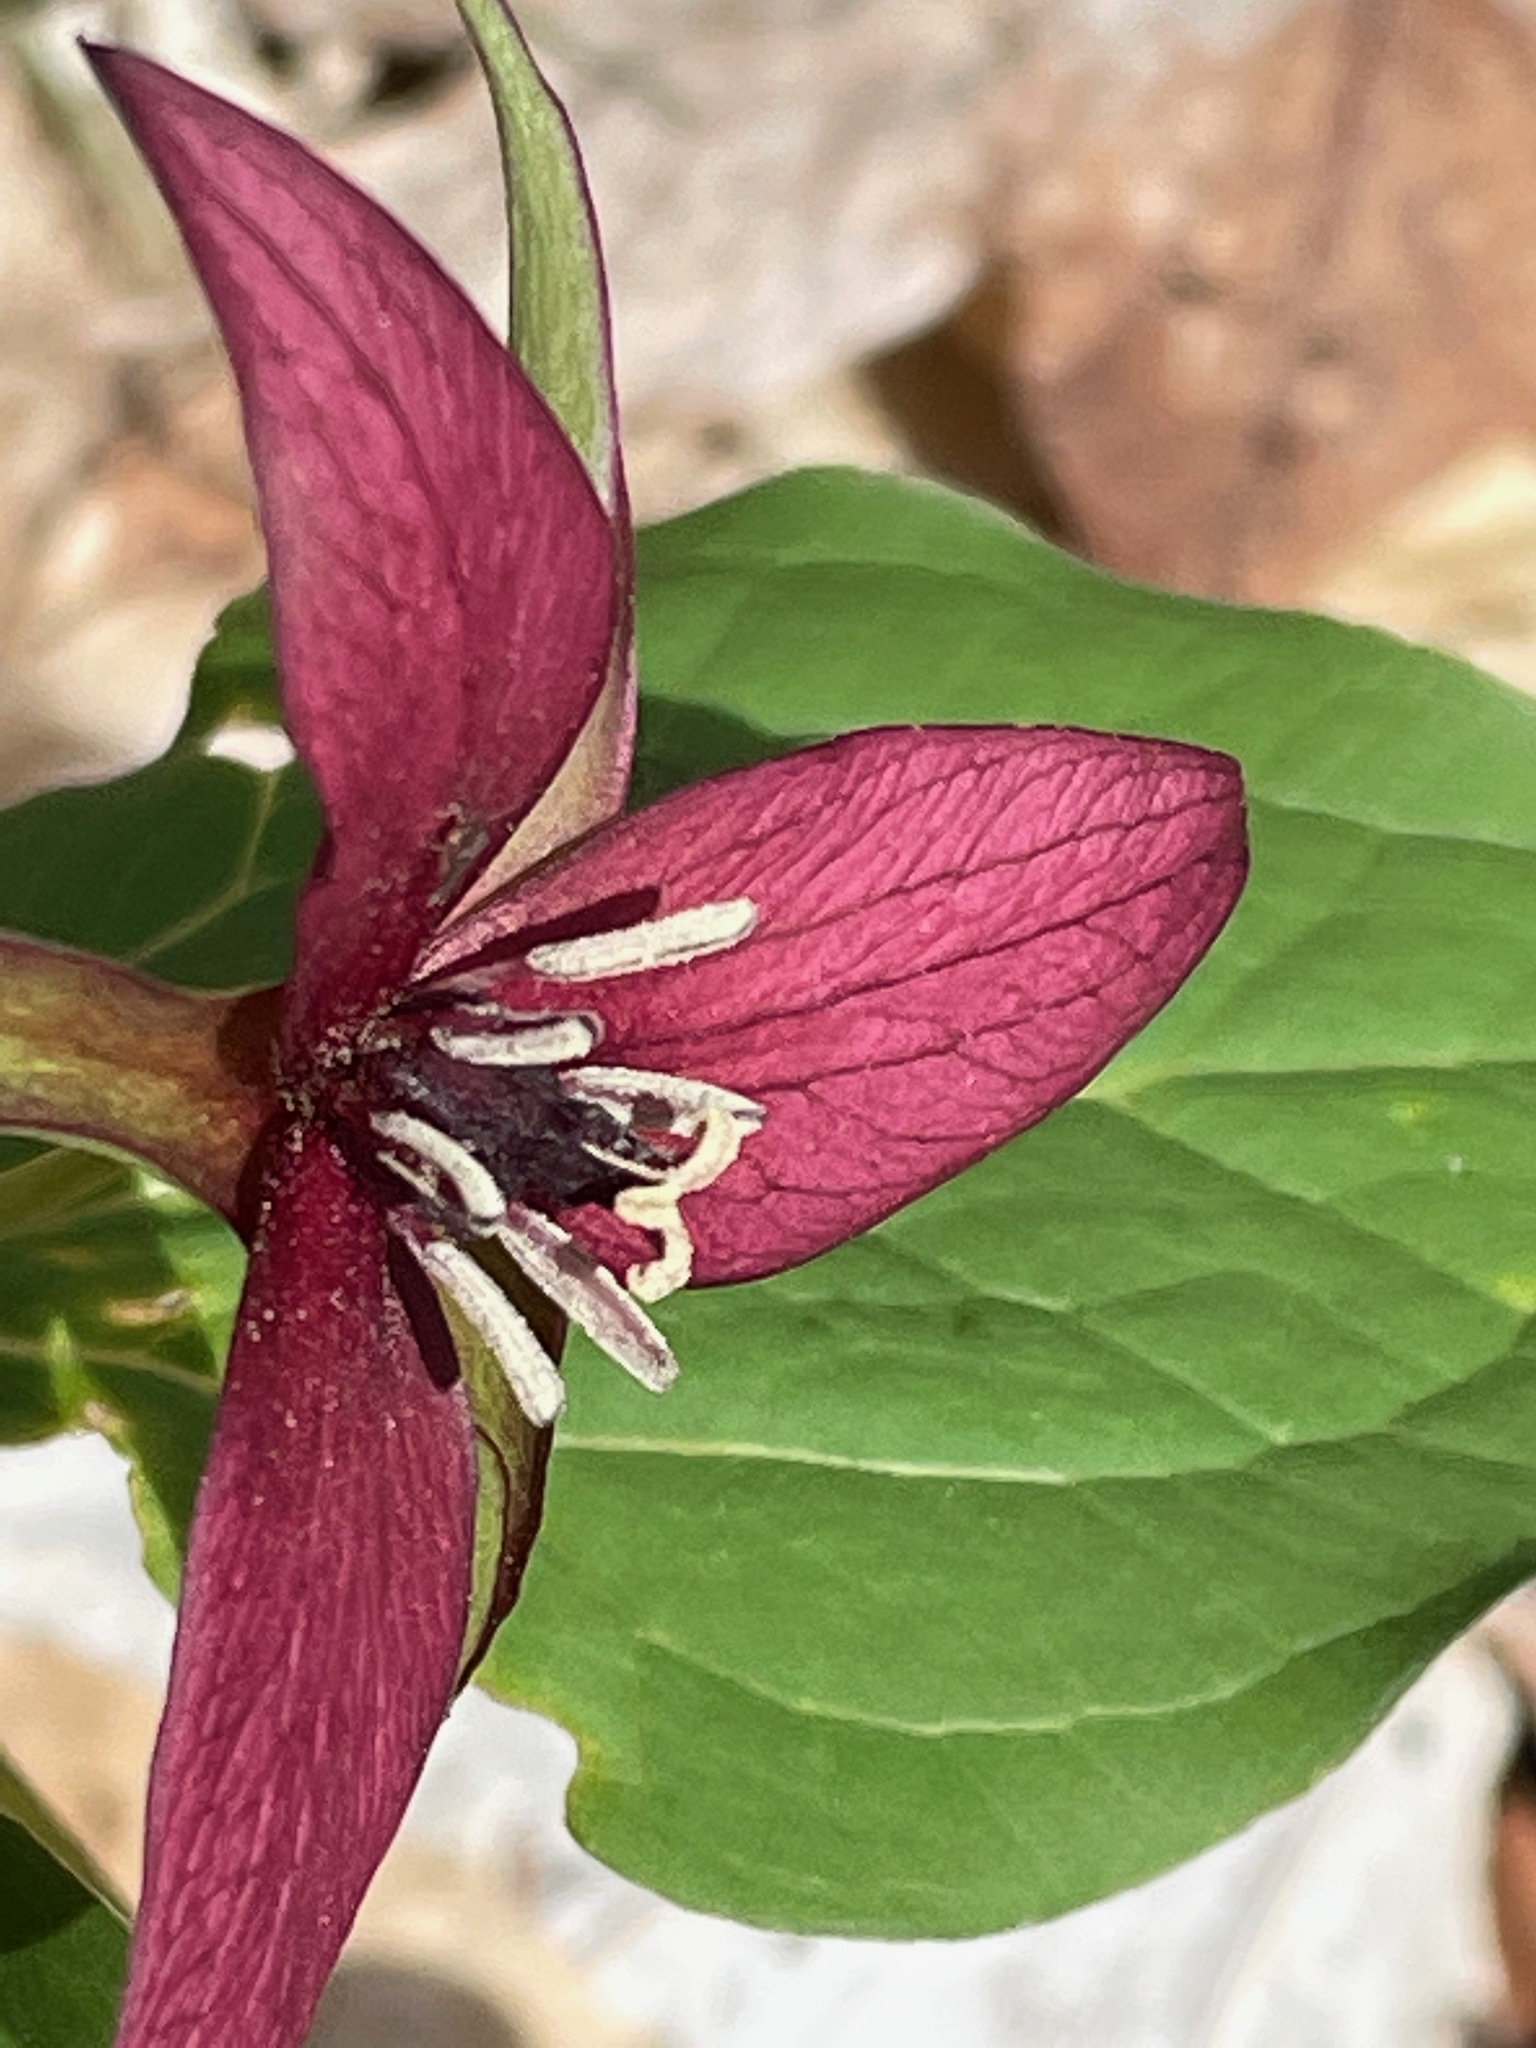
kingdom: Plantae
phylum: Tracheophyta
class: Liliopsida
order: Liliales
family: Melanthiaceae
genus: Trillium
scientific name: Trillium erectum
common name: Purple trillium
